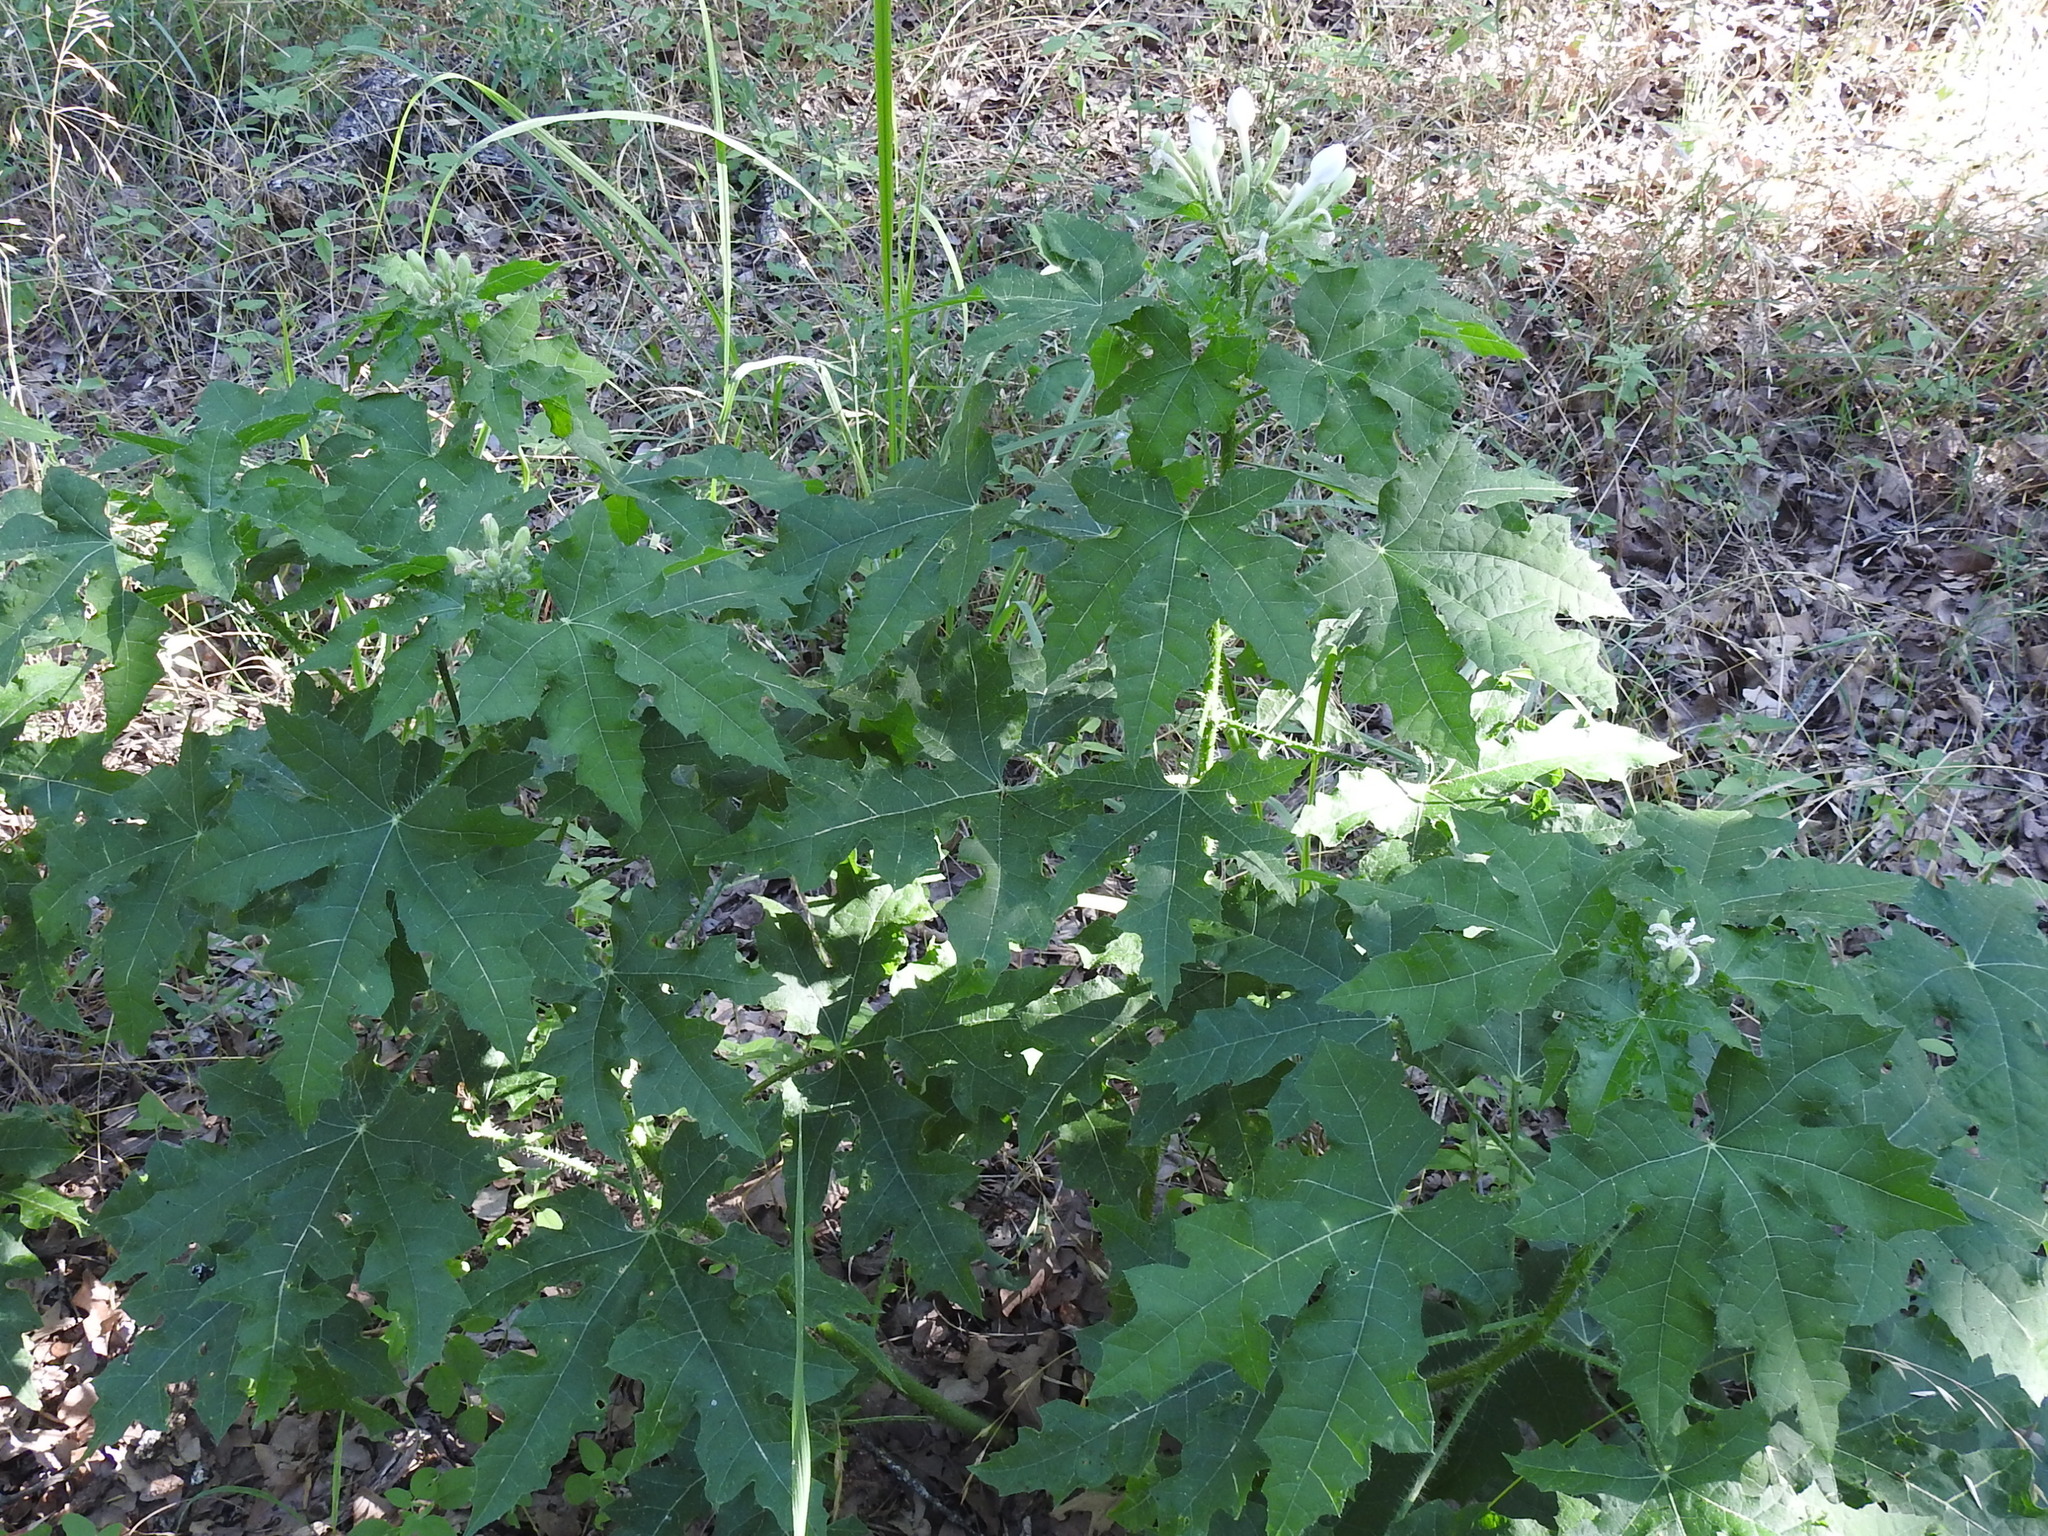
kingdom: Plantae
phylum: Tracheophyta
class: Magnoliopsida
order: Malpighiales
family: Euphorbiaceae
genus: Cnidoscolus
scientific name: Cnidoscolus texanus
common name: Texas bull-nettle
